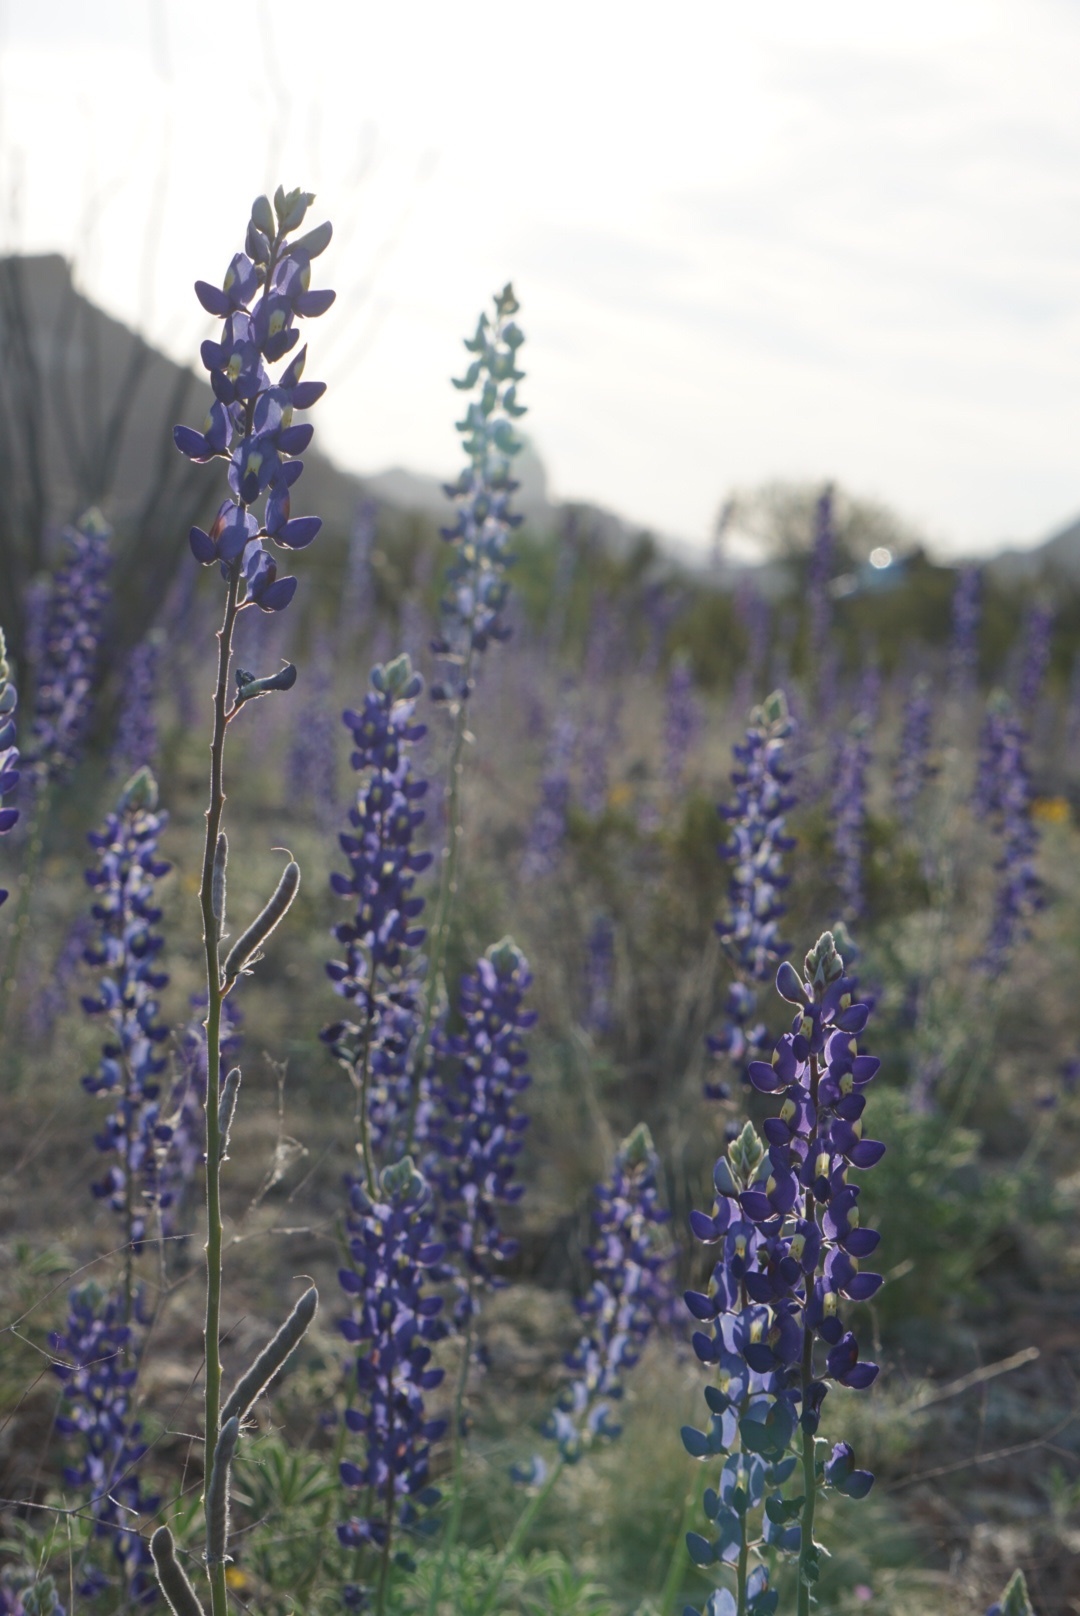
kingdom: Plantae
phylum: Tracheophyta
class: Magnoliopsida
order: Fabales
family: Fabaceae
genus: Lupinus
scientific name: Lupinus havardii
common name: Chisos bluebonnet
